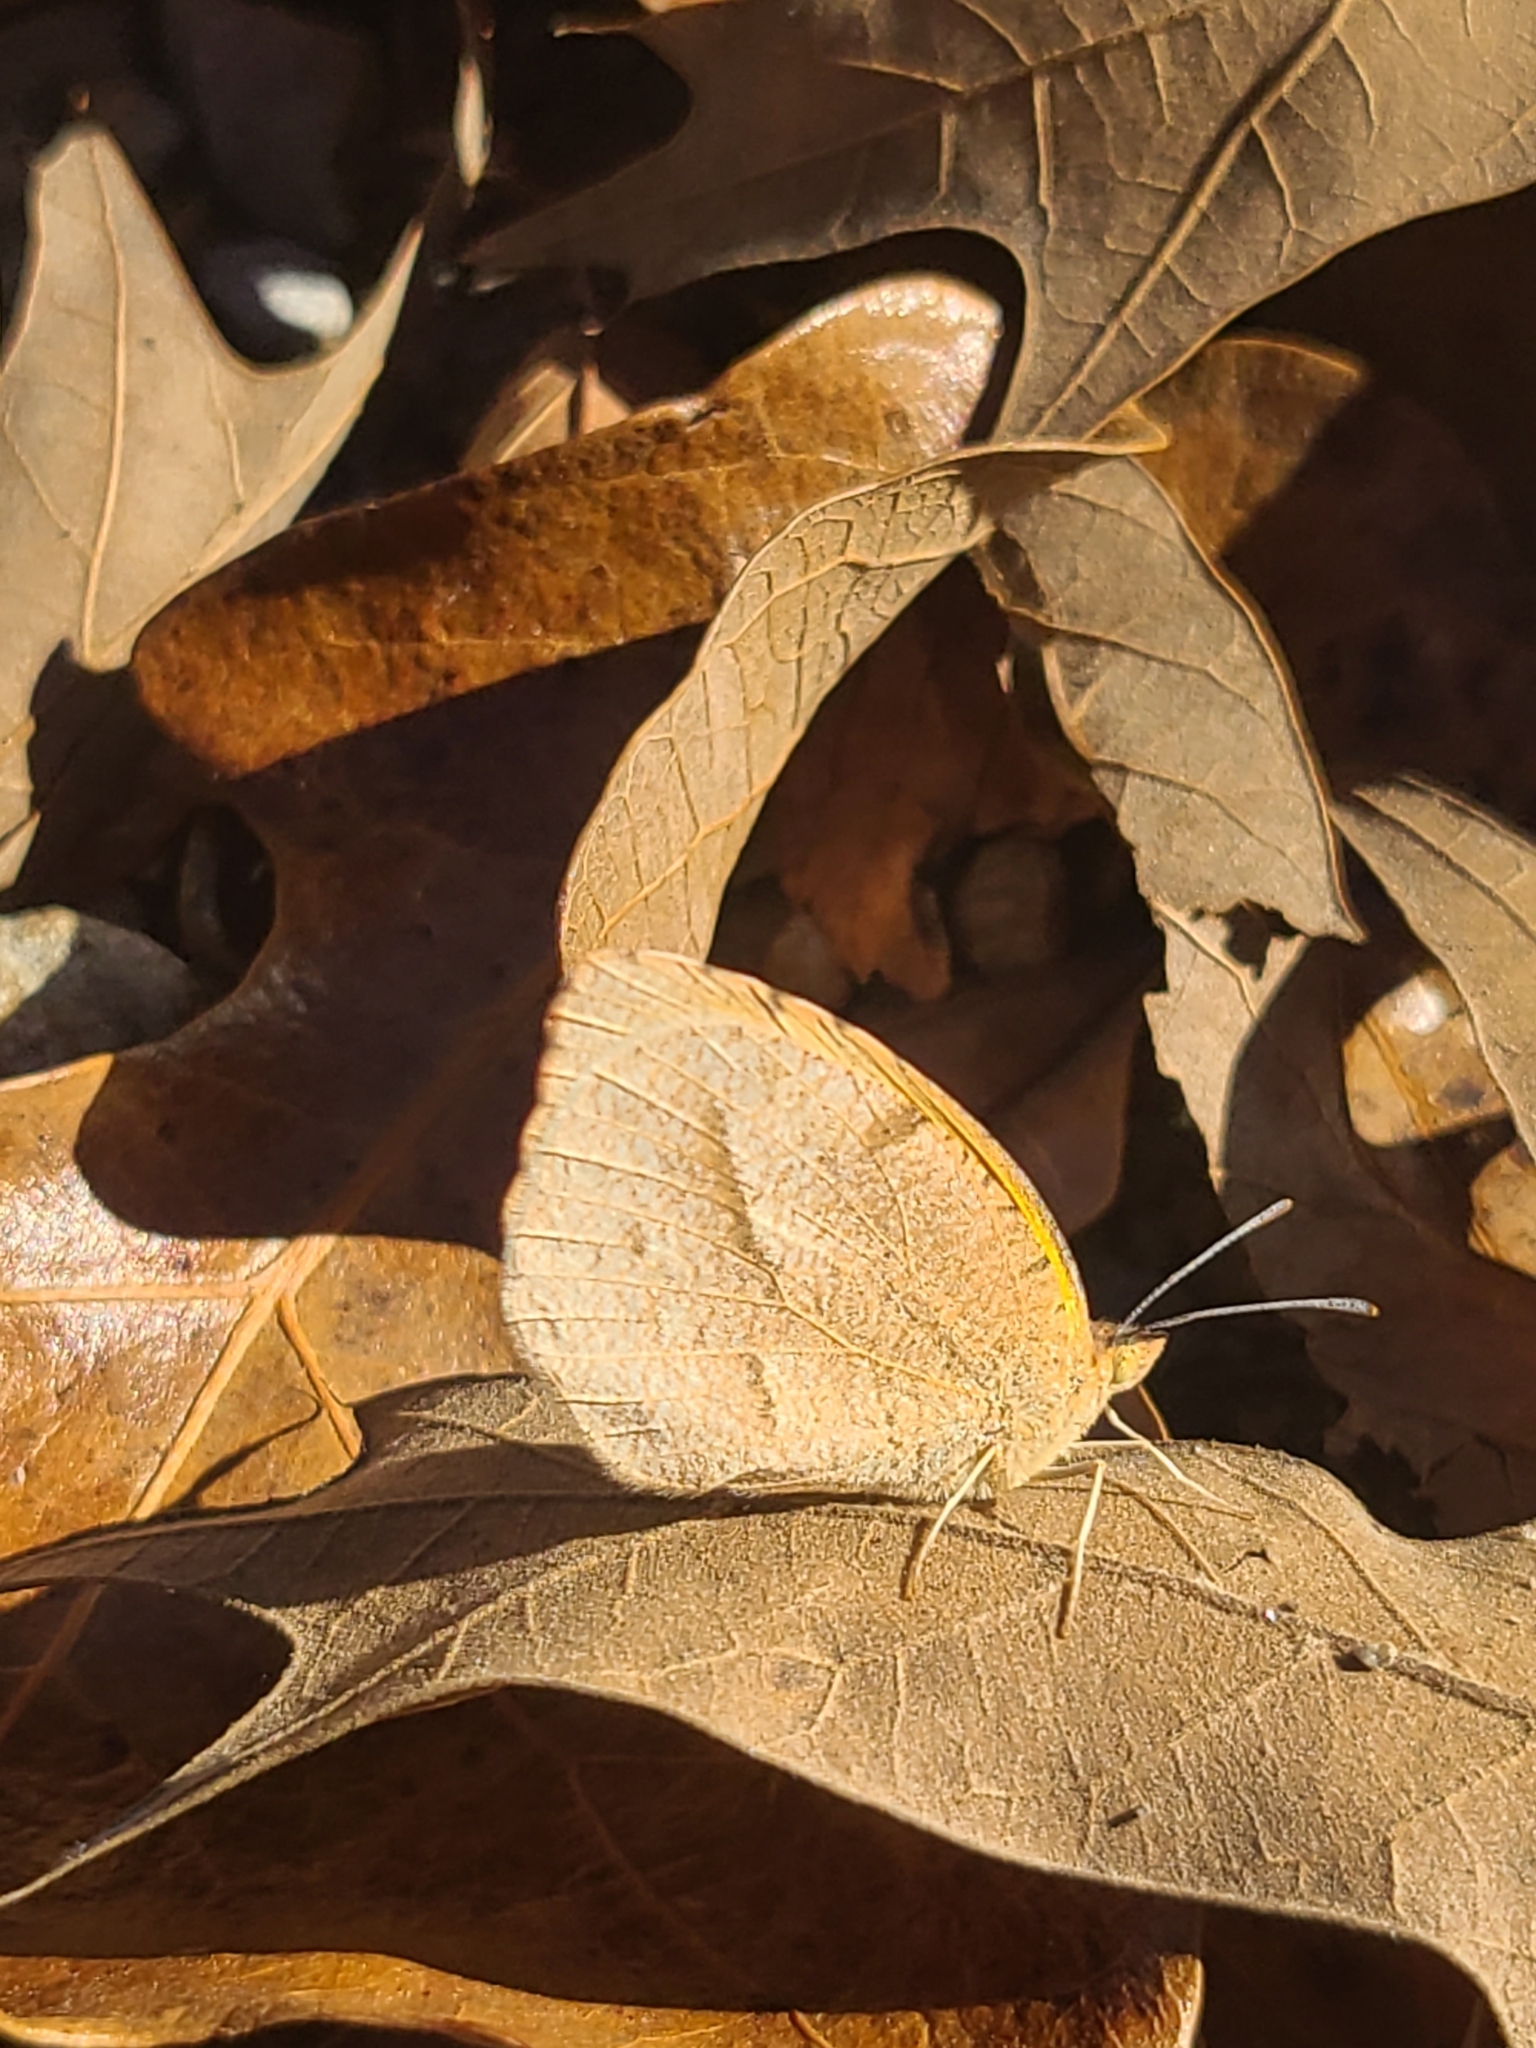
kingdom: Animalia
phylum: Arthropoda
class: Insecta
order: Lepidoptera
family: Pieridae
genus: Abaeis
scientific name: Abaeis nicippe
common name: Sleepy orange
